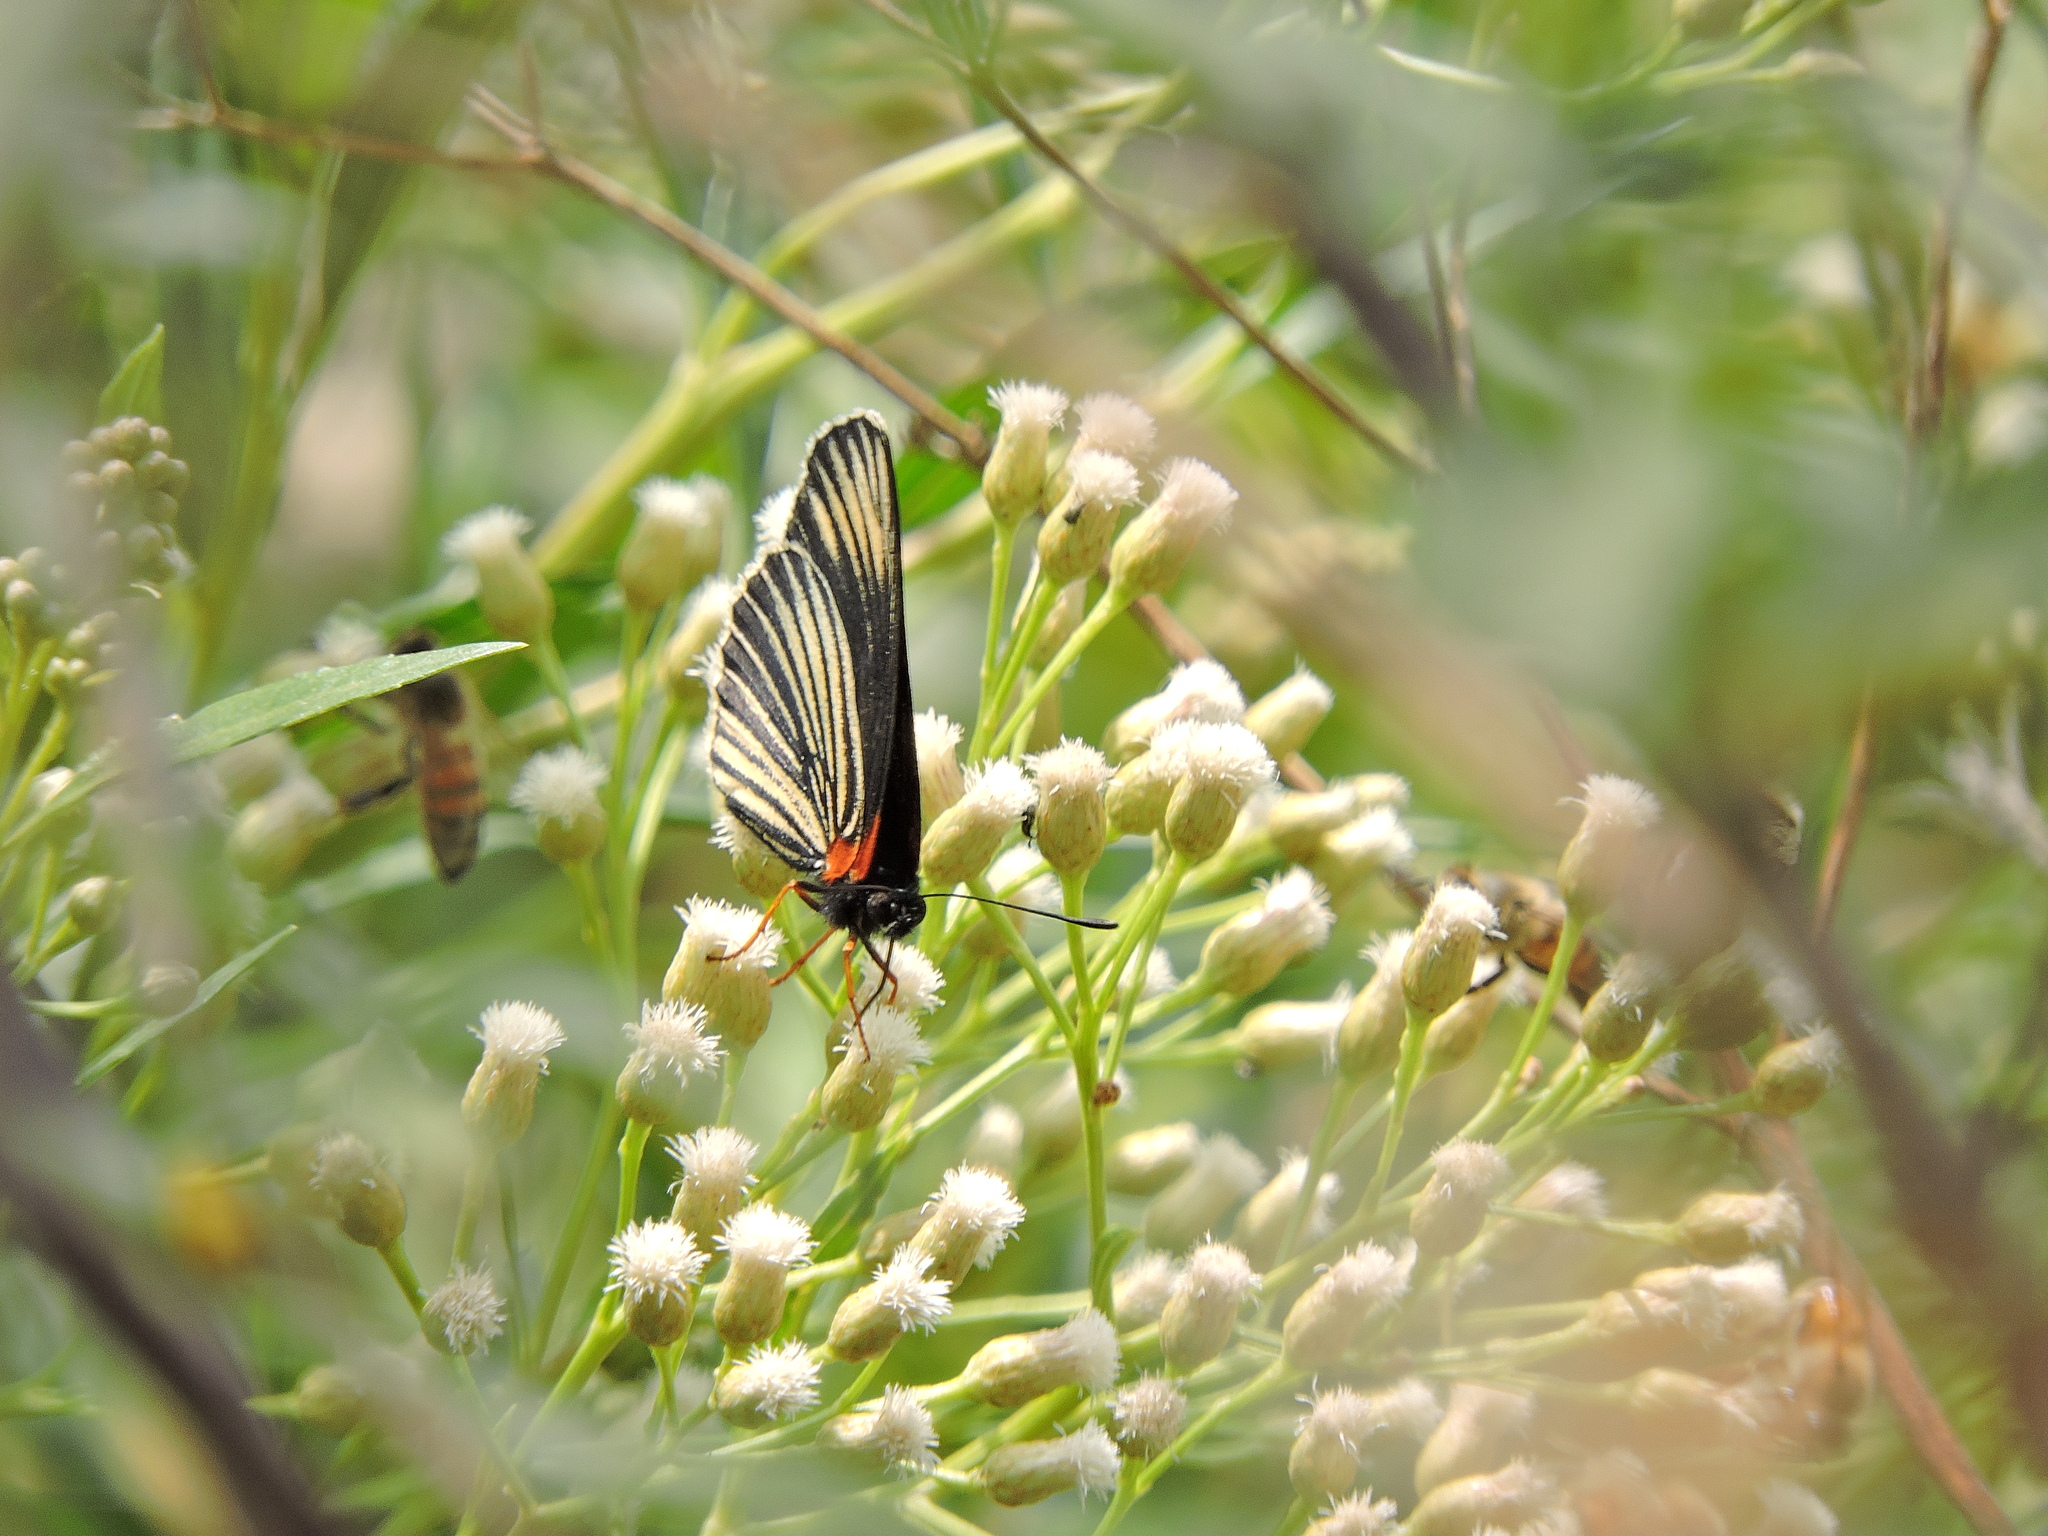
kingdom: Animalia
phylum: Arthropoda
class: Insecta
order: Lepidoptera
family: Nymphalidae
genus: Chlosyne
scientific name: Chlosyne ehrenbergii
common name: White-rayed patch
